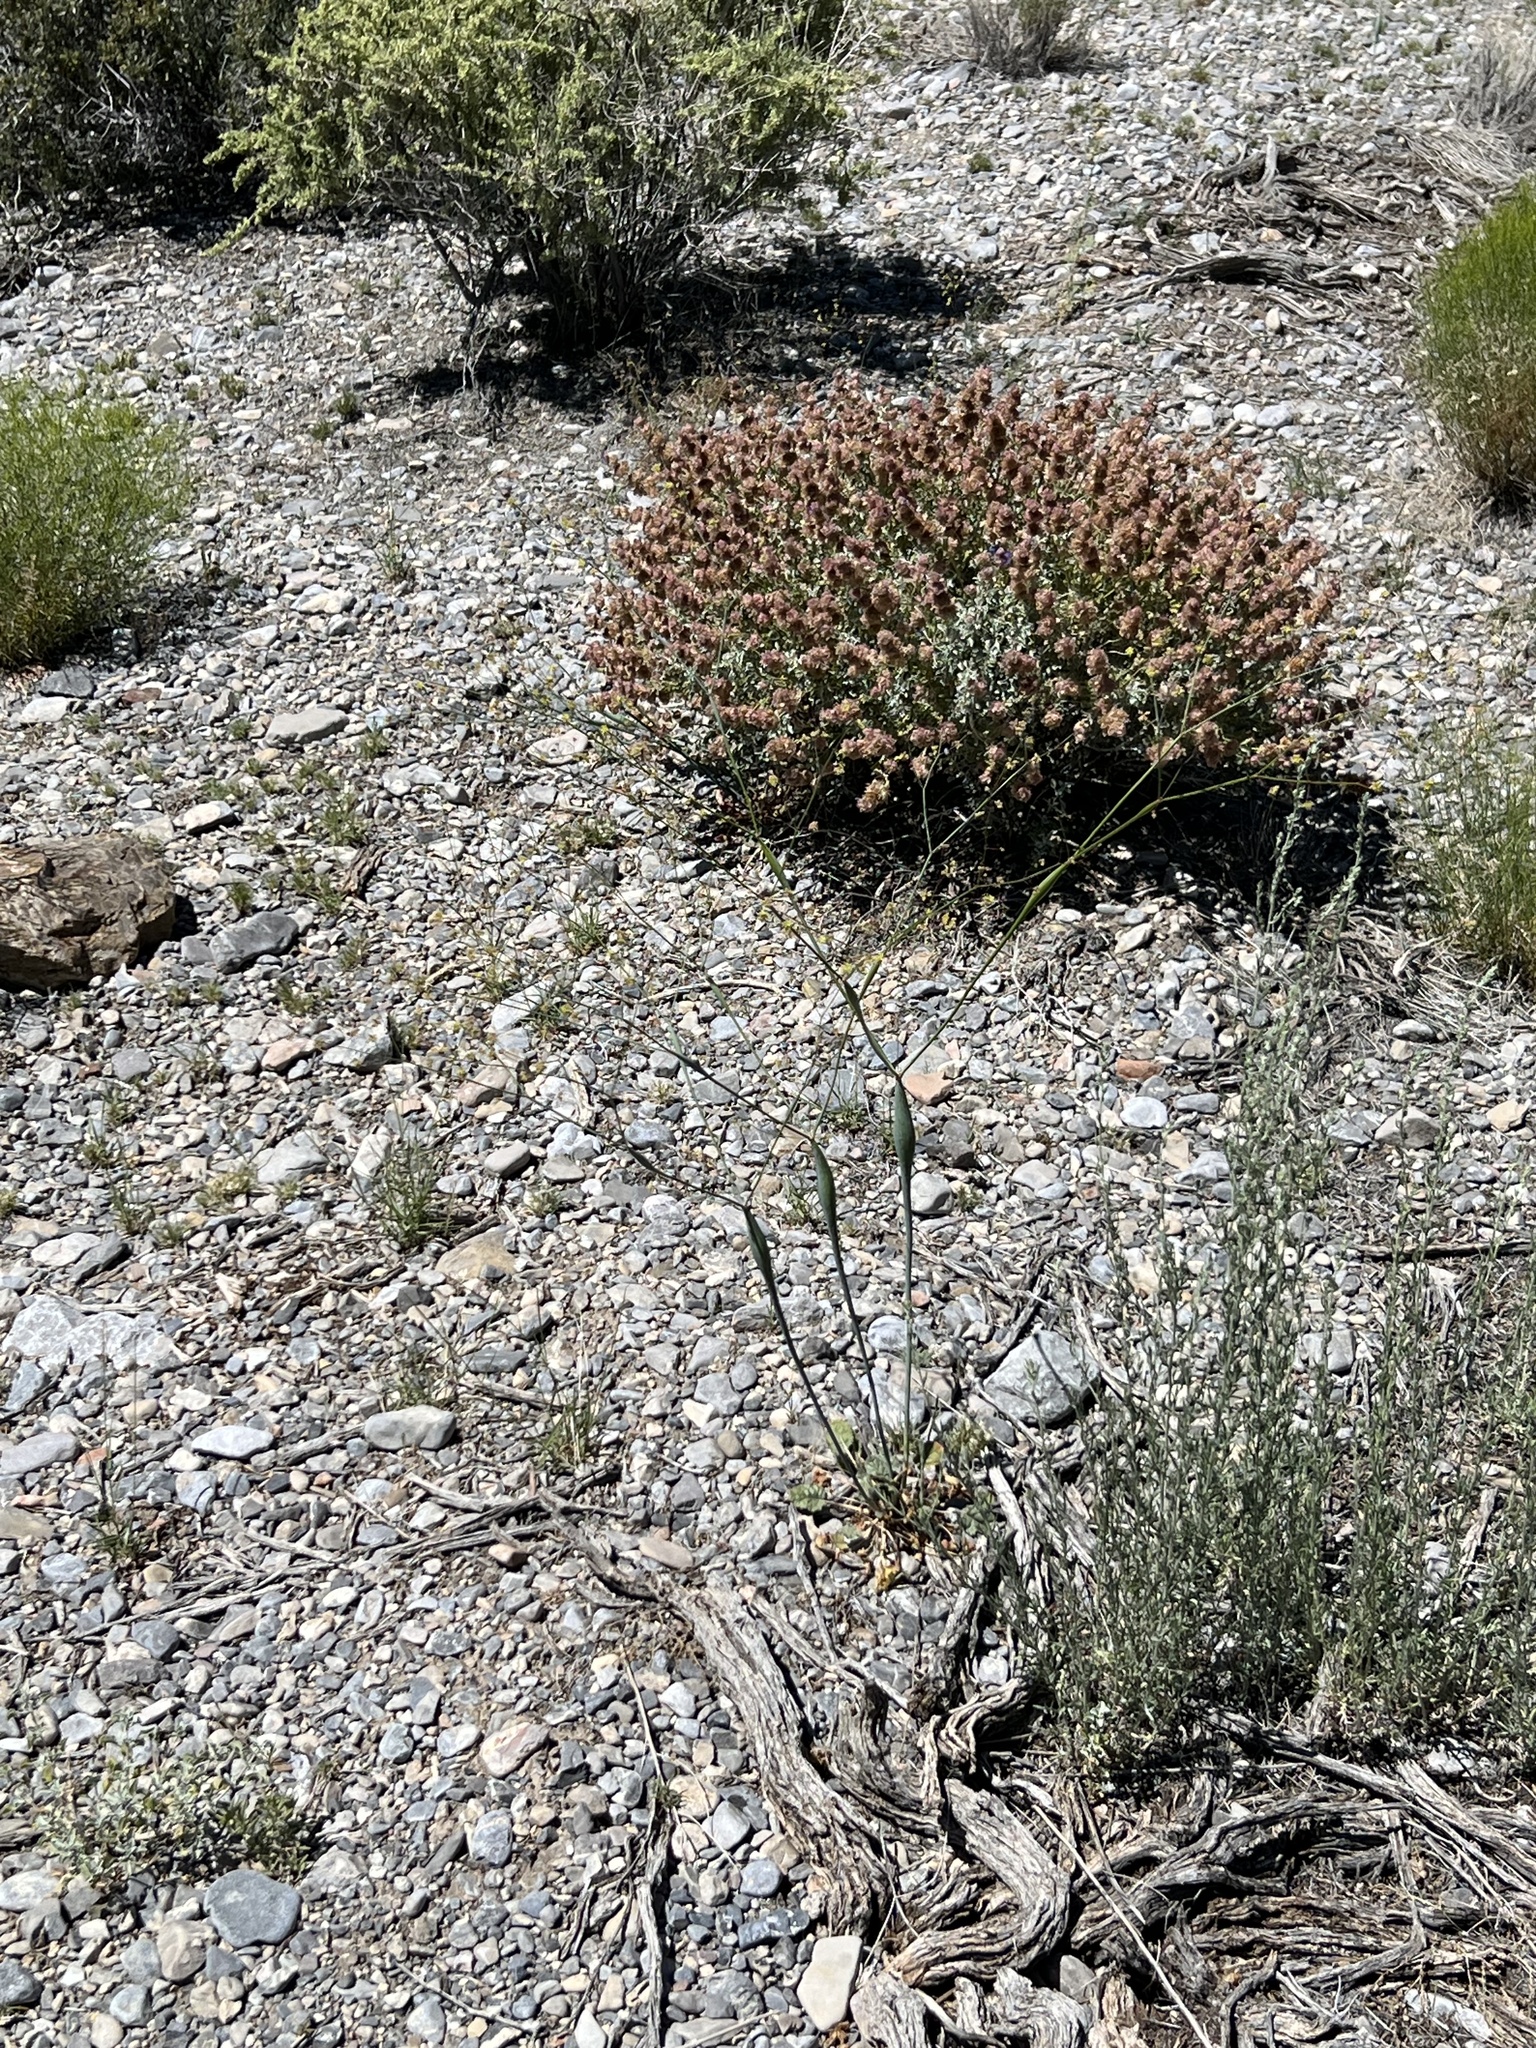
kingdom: Plantae
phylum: Tracheophyta
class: Magnoliopsida
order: Caryophyllales
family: Polygonaceae
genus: Eriogonum
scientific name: Eriogonum inflatum
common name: Desert trumpet
